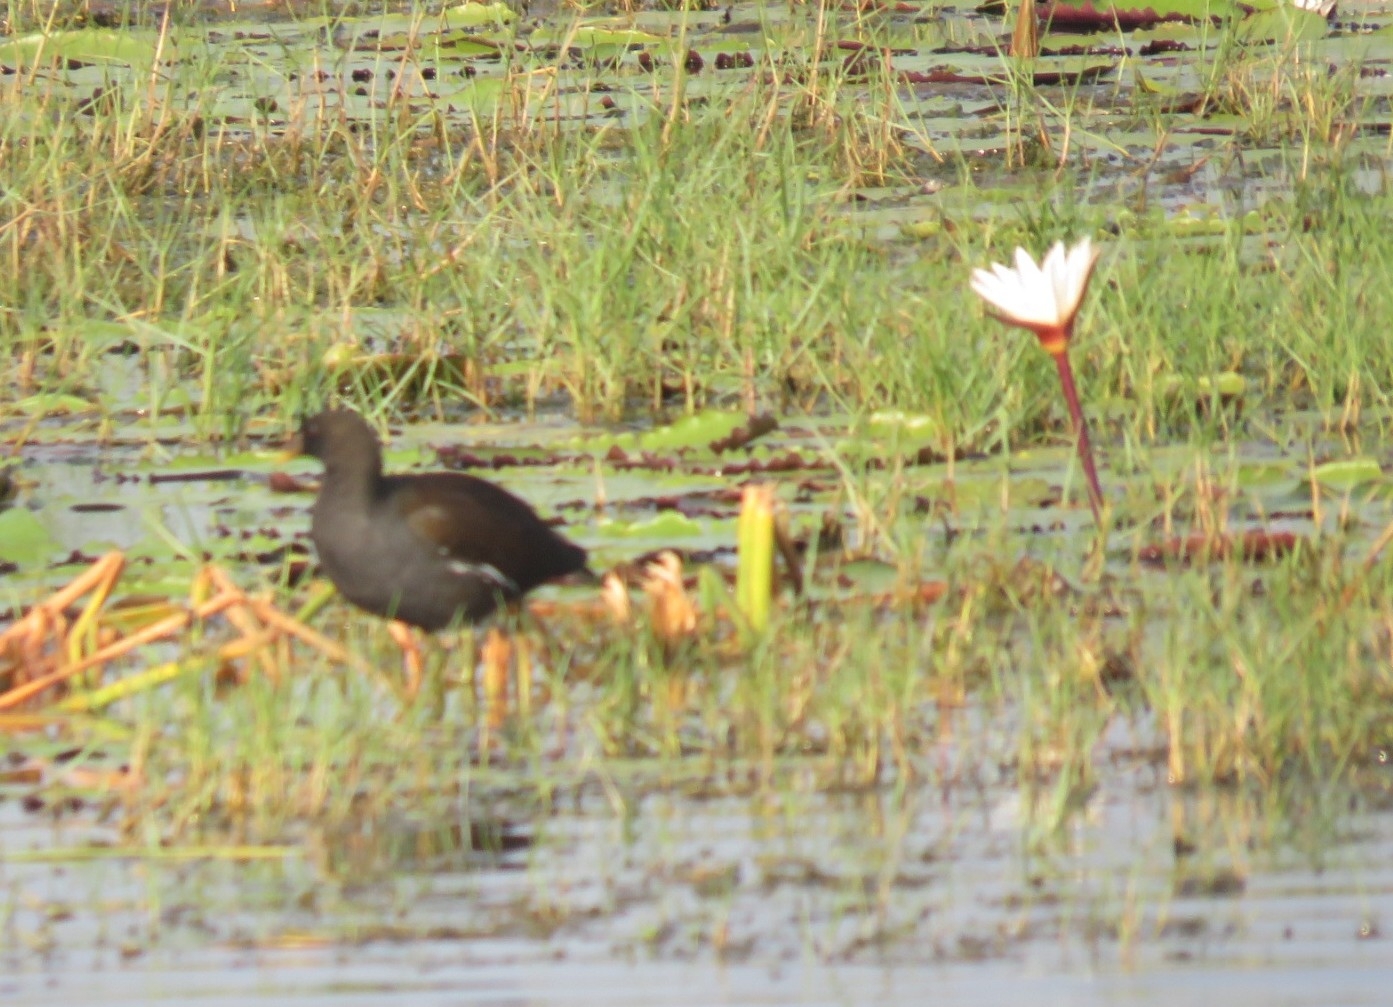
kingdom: Animalia
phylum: Chordata
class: Aves
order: Gruiformes
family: Rallidae
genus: Gallinula
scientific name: Gallinula chloropus
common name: Common moorhen
